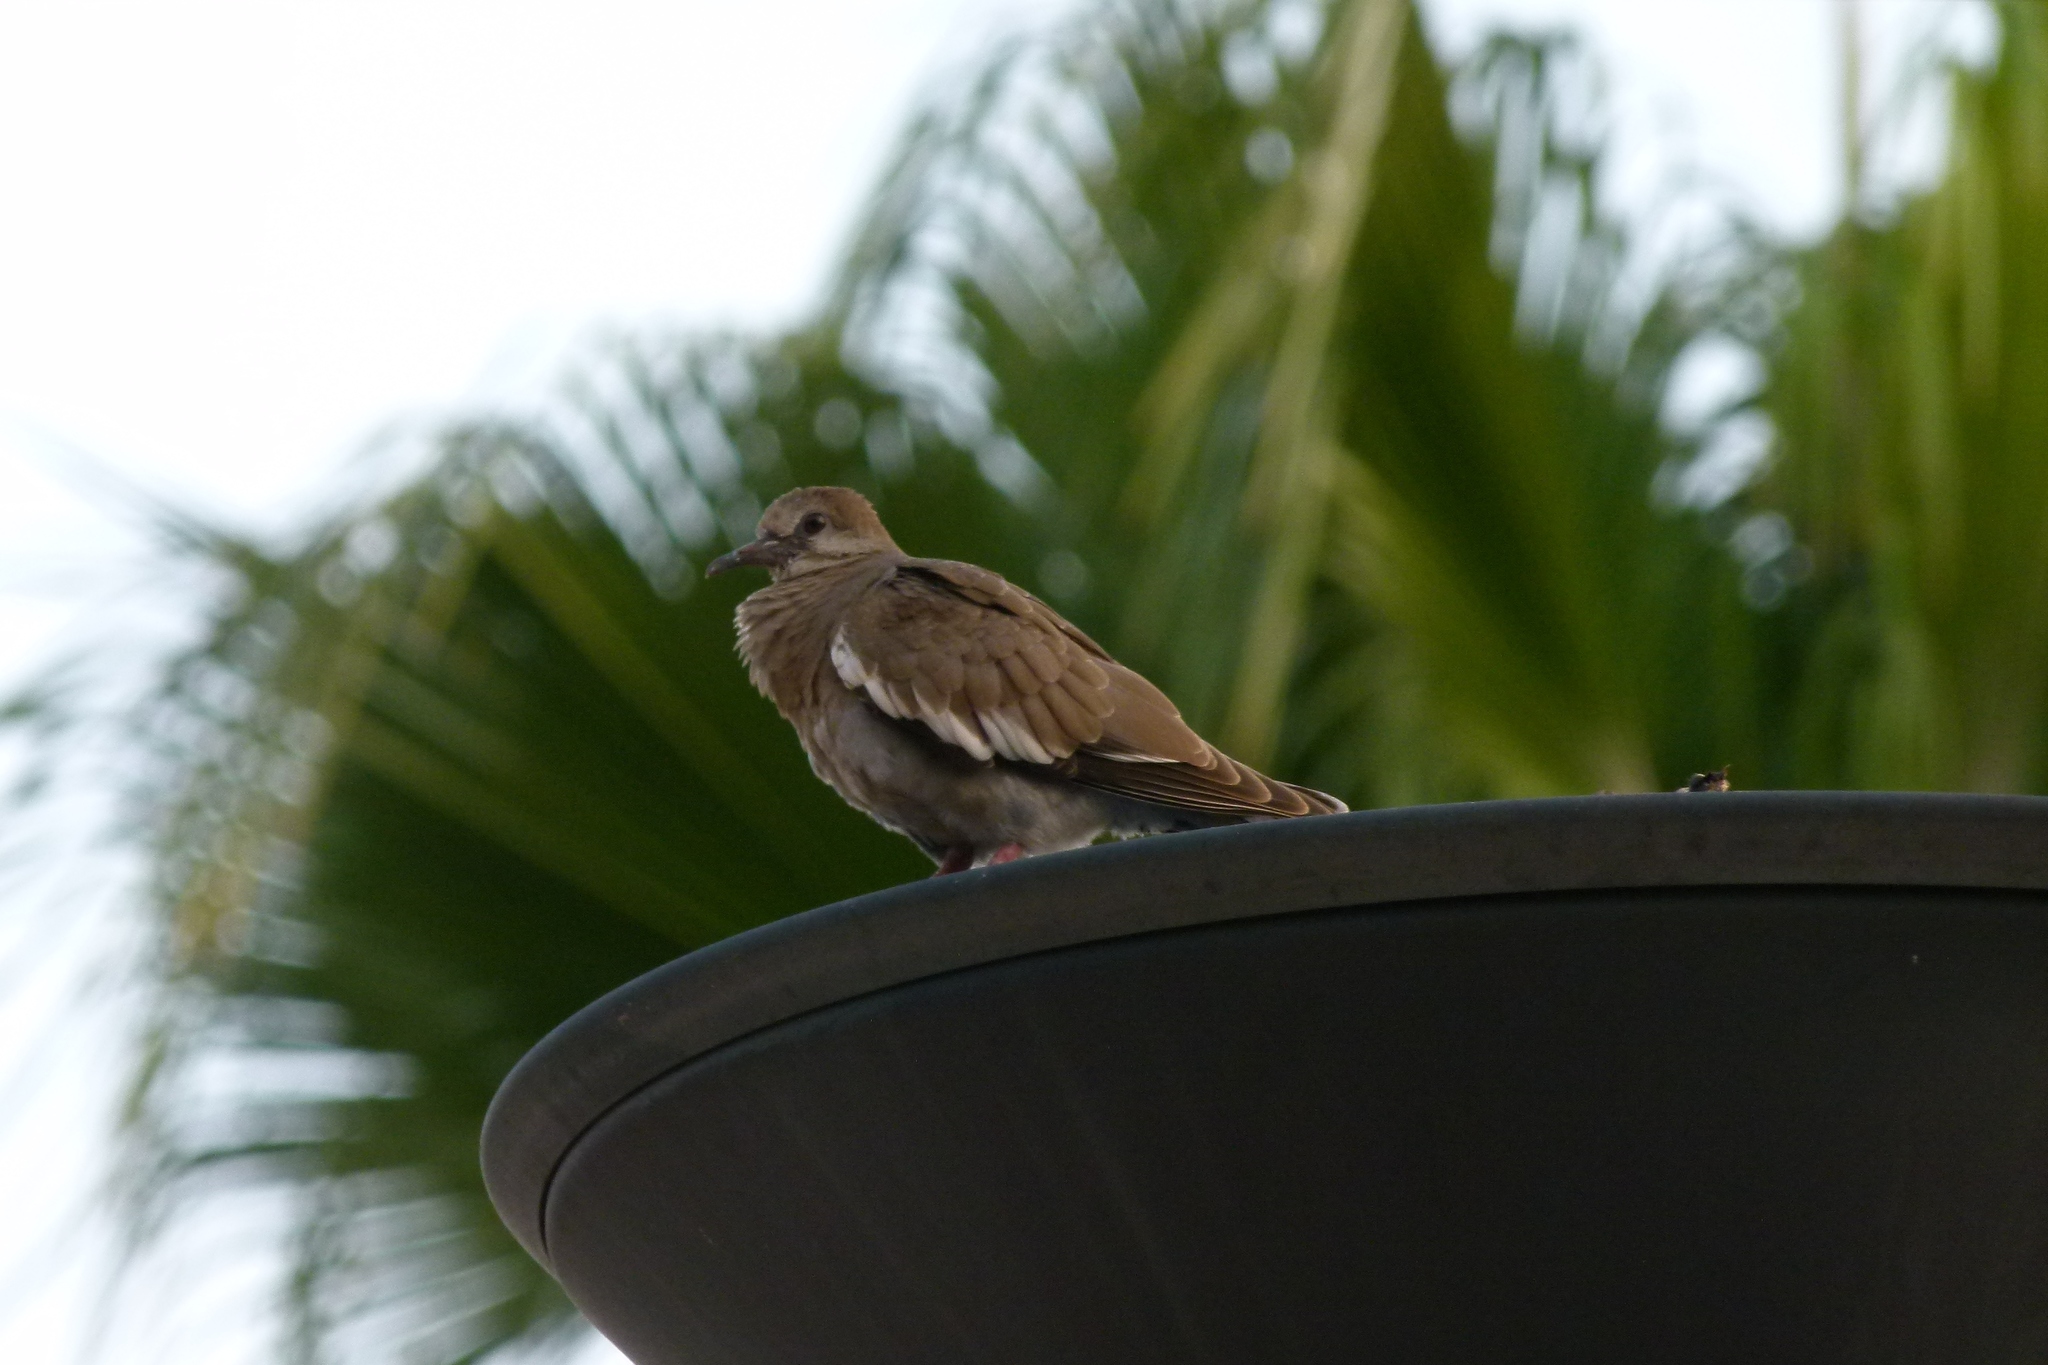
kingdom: Animalia
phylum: Chordata
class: Aves
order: Columbiformes
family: Columbidae
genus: Zenaida
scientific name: Zenaida asiatica
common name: White-winged dove
